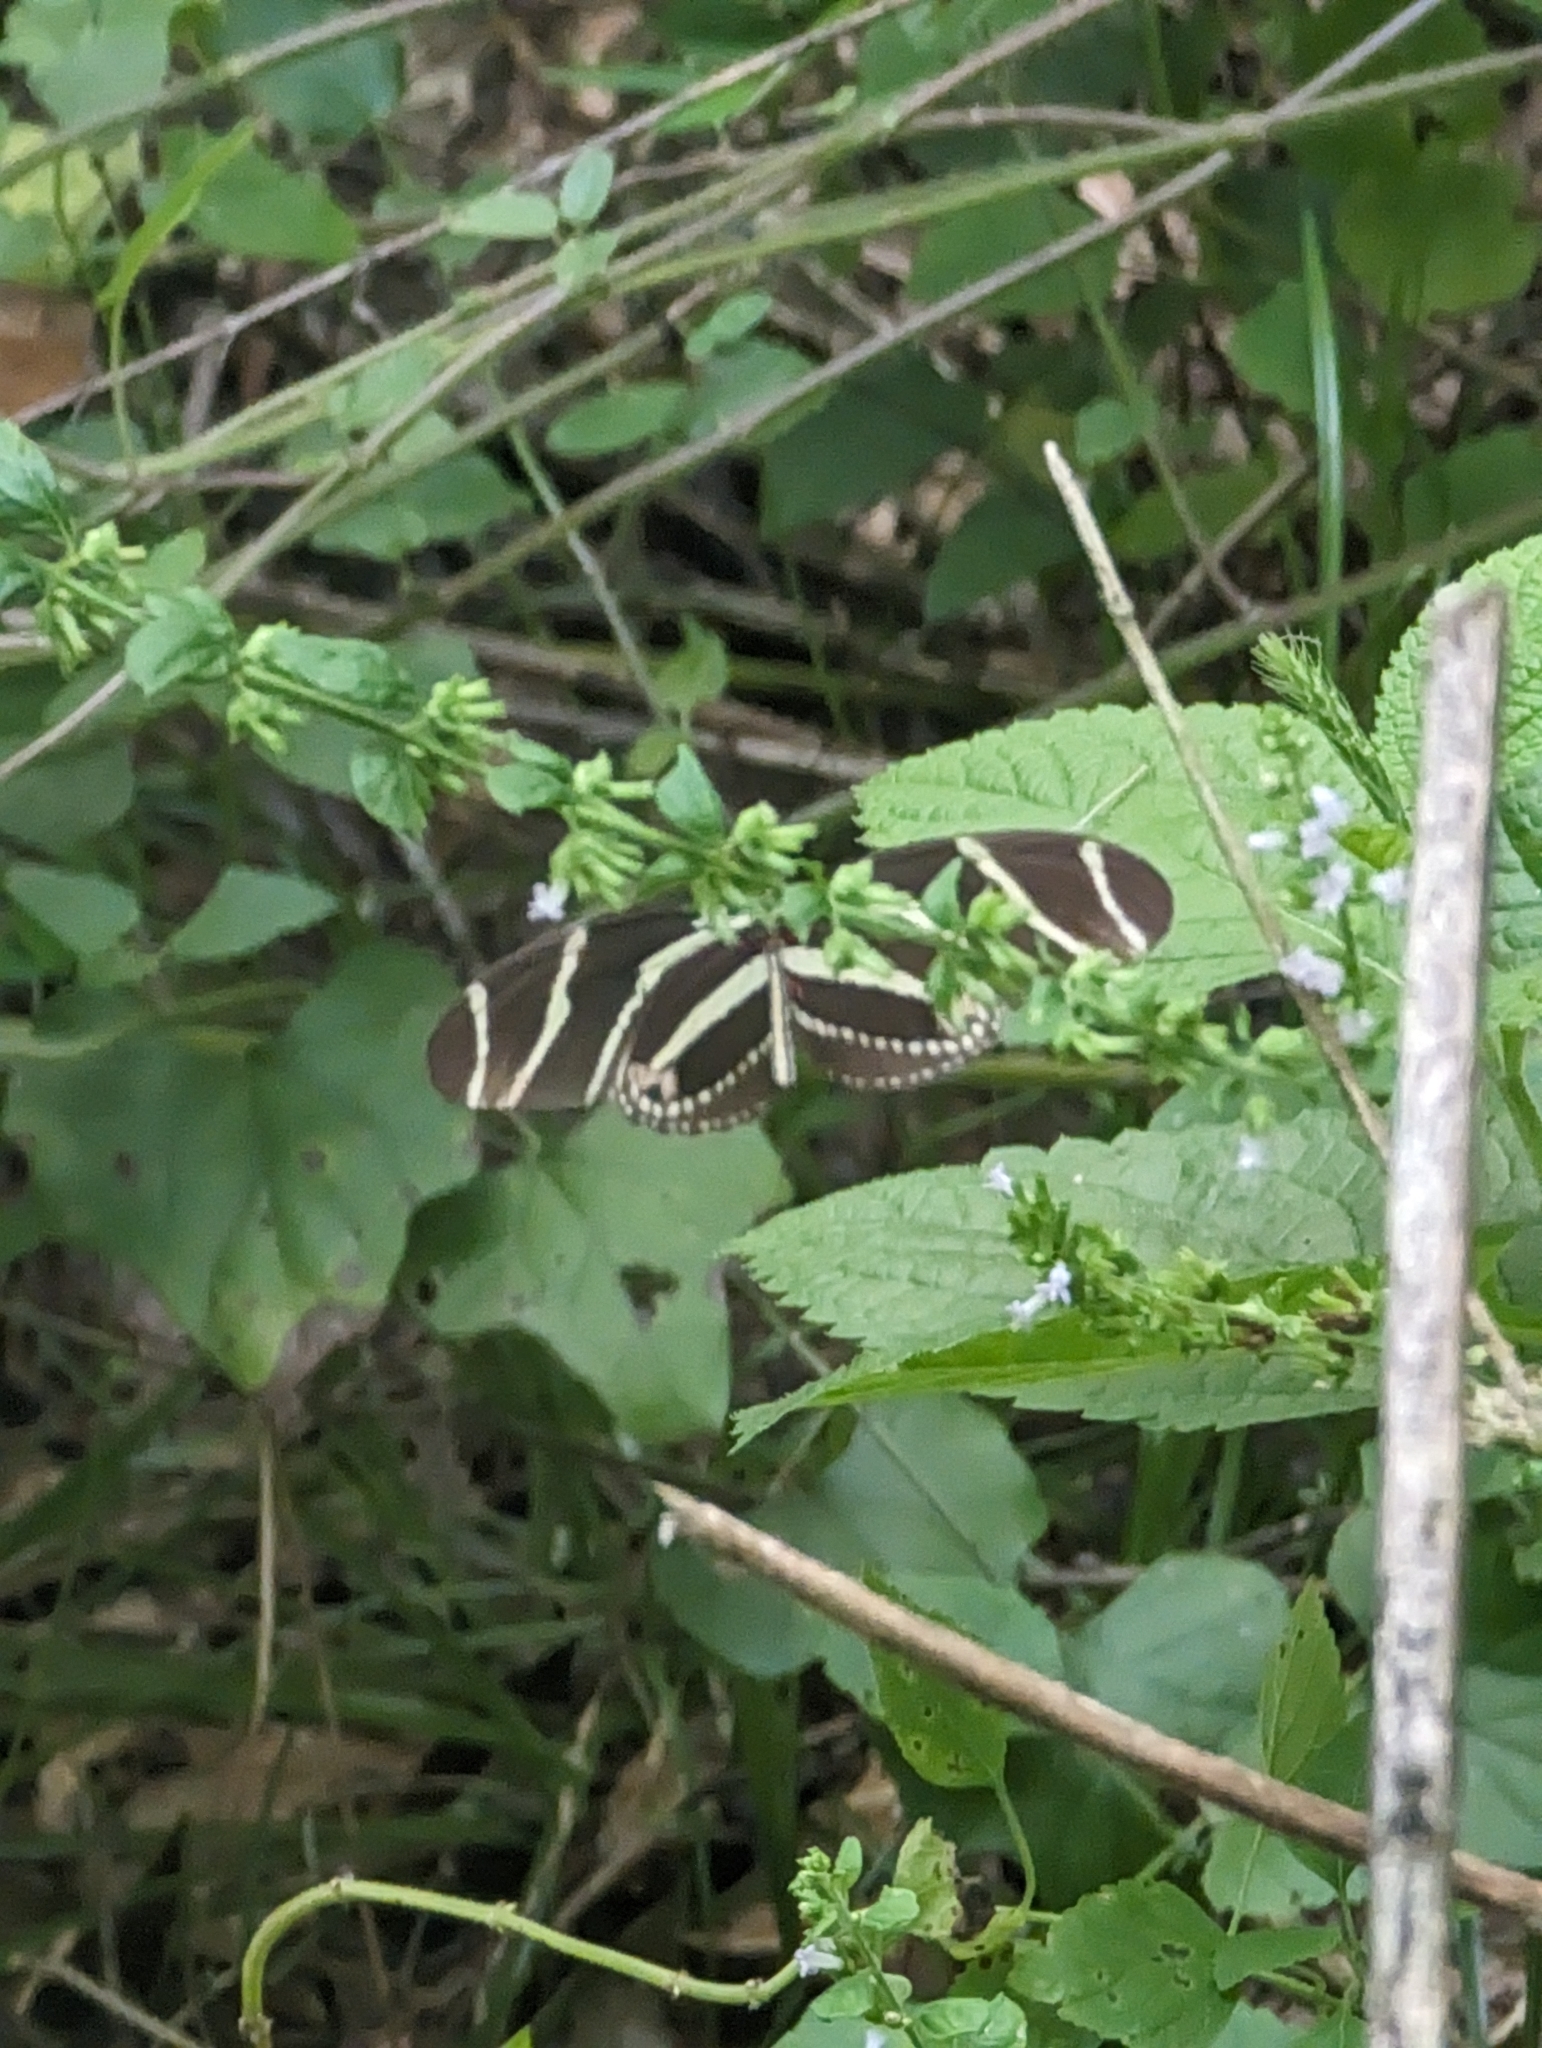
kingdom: Animalia
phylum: Arthropoda
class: Insecta
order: Lepidoptera
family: Nymphalidae
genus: Heliconius
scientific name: Heliconius charithonia
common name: Zebra long wing
